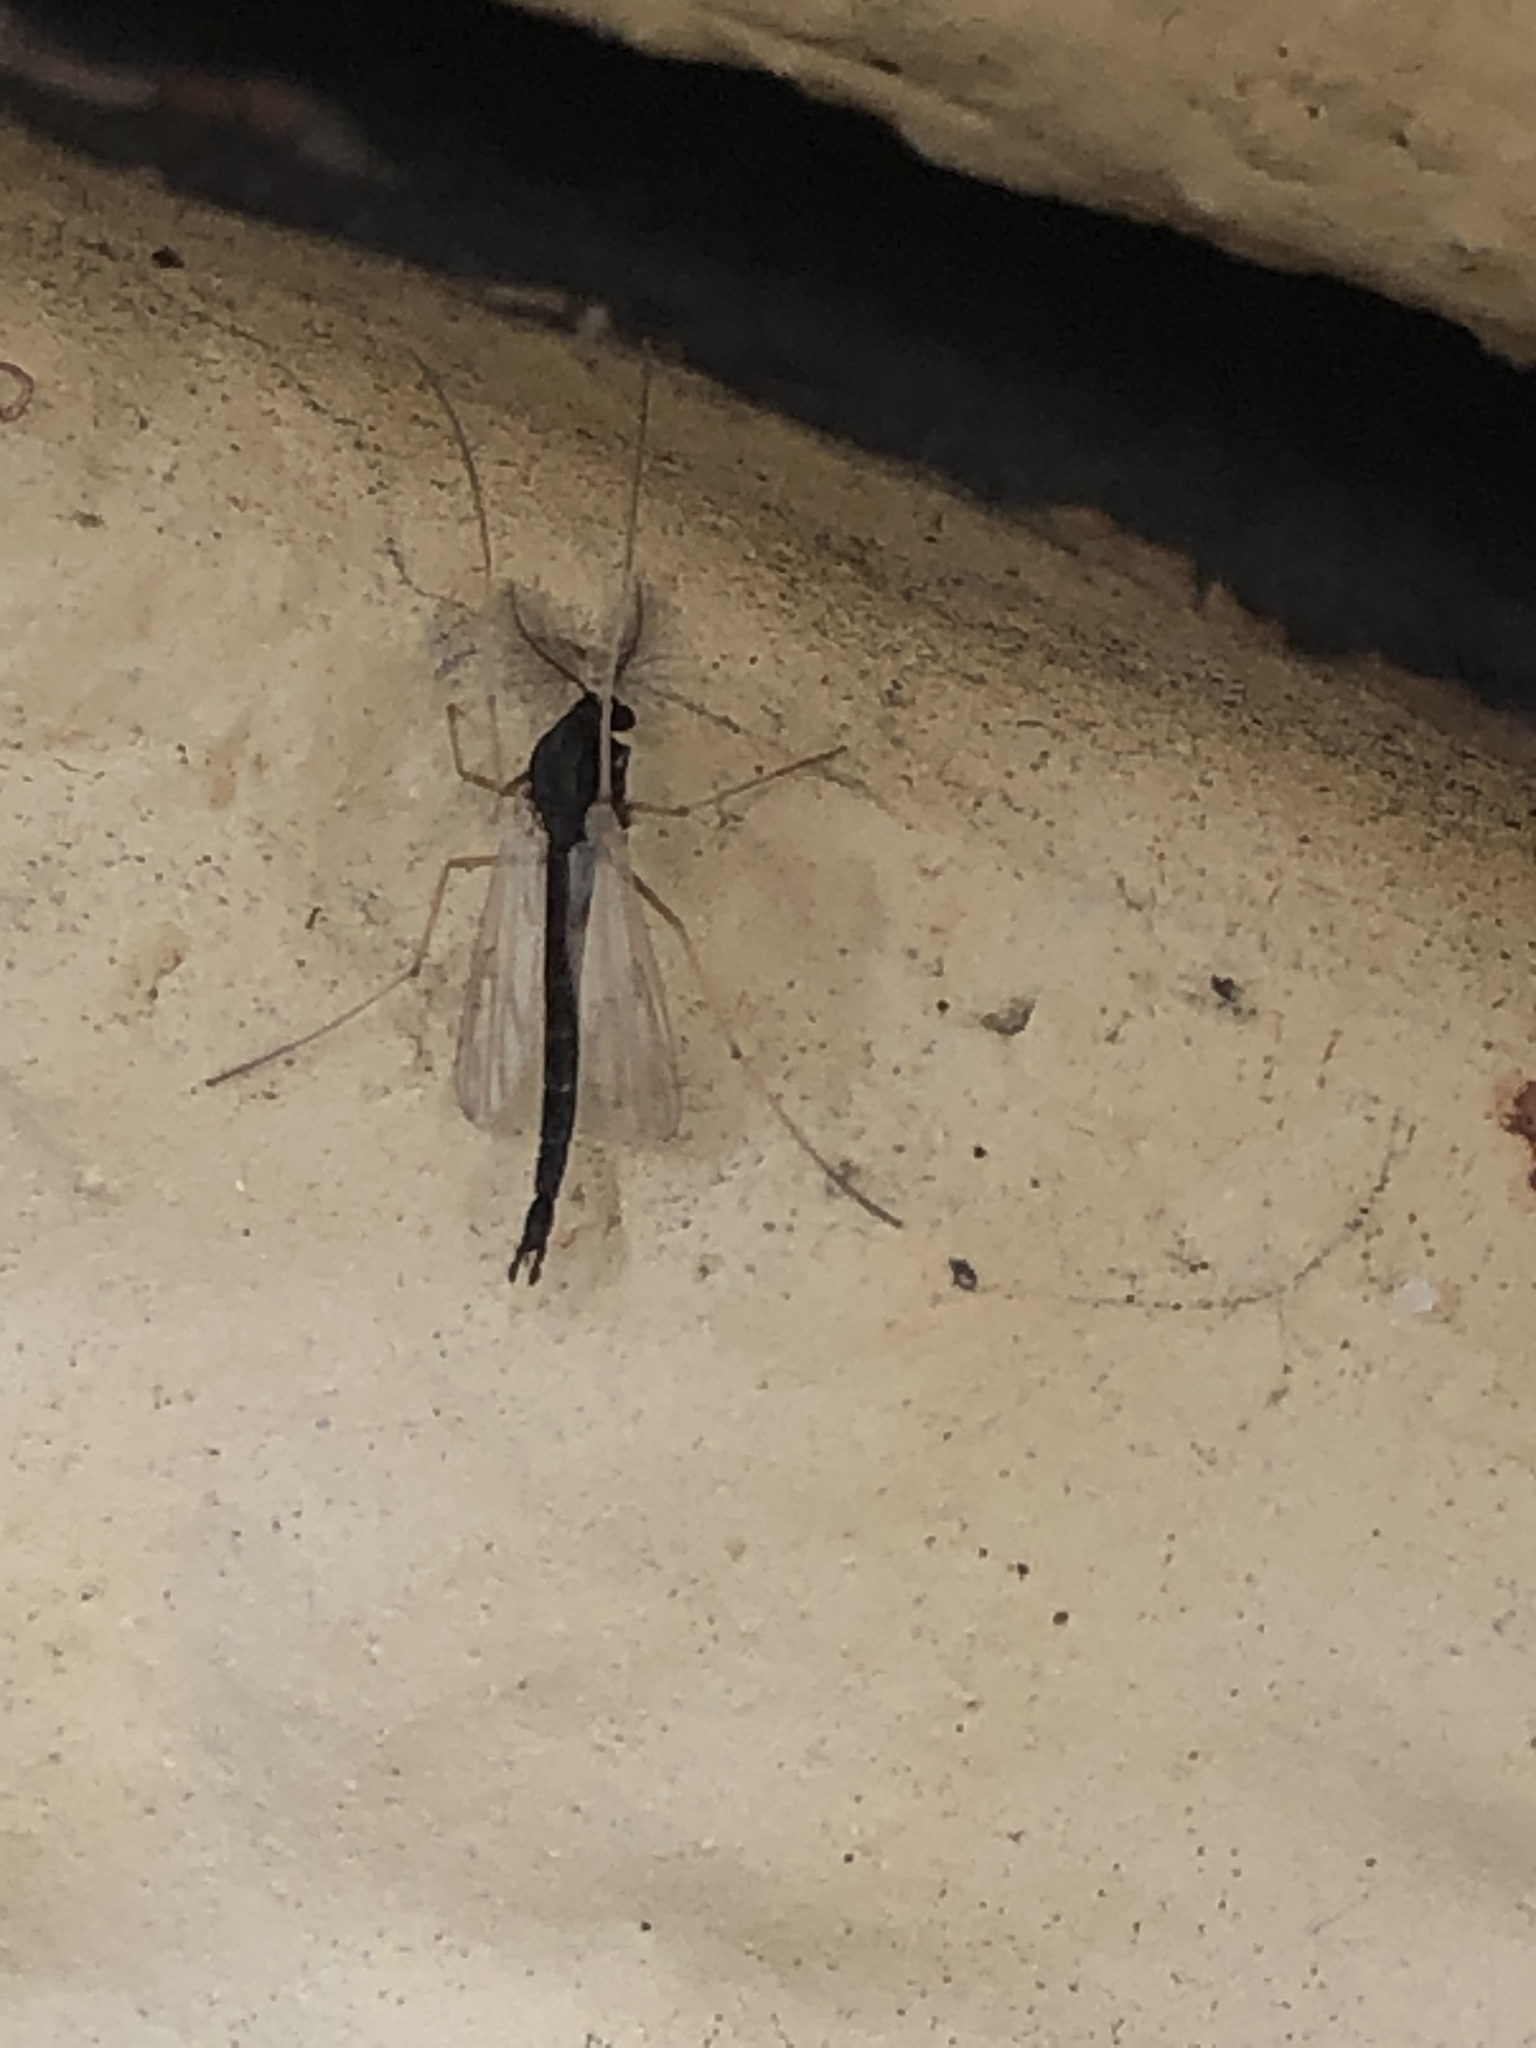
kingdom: Animalia
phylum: Arthropoda
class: Insecta
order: Diptera
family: Chironomidae
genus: Polypedilum
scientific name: Polypedilum
